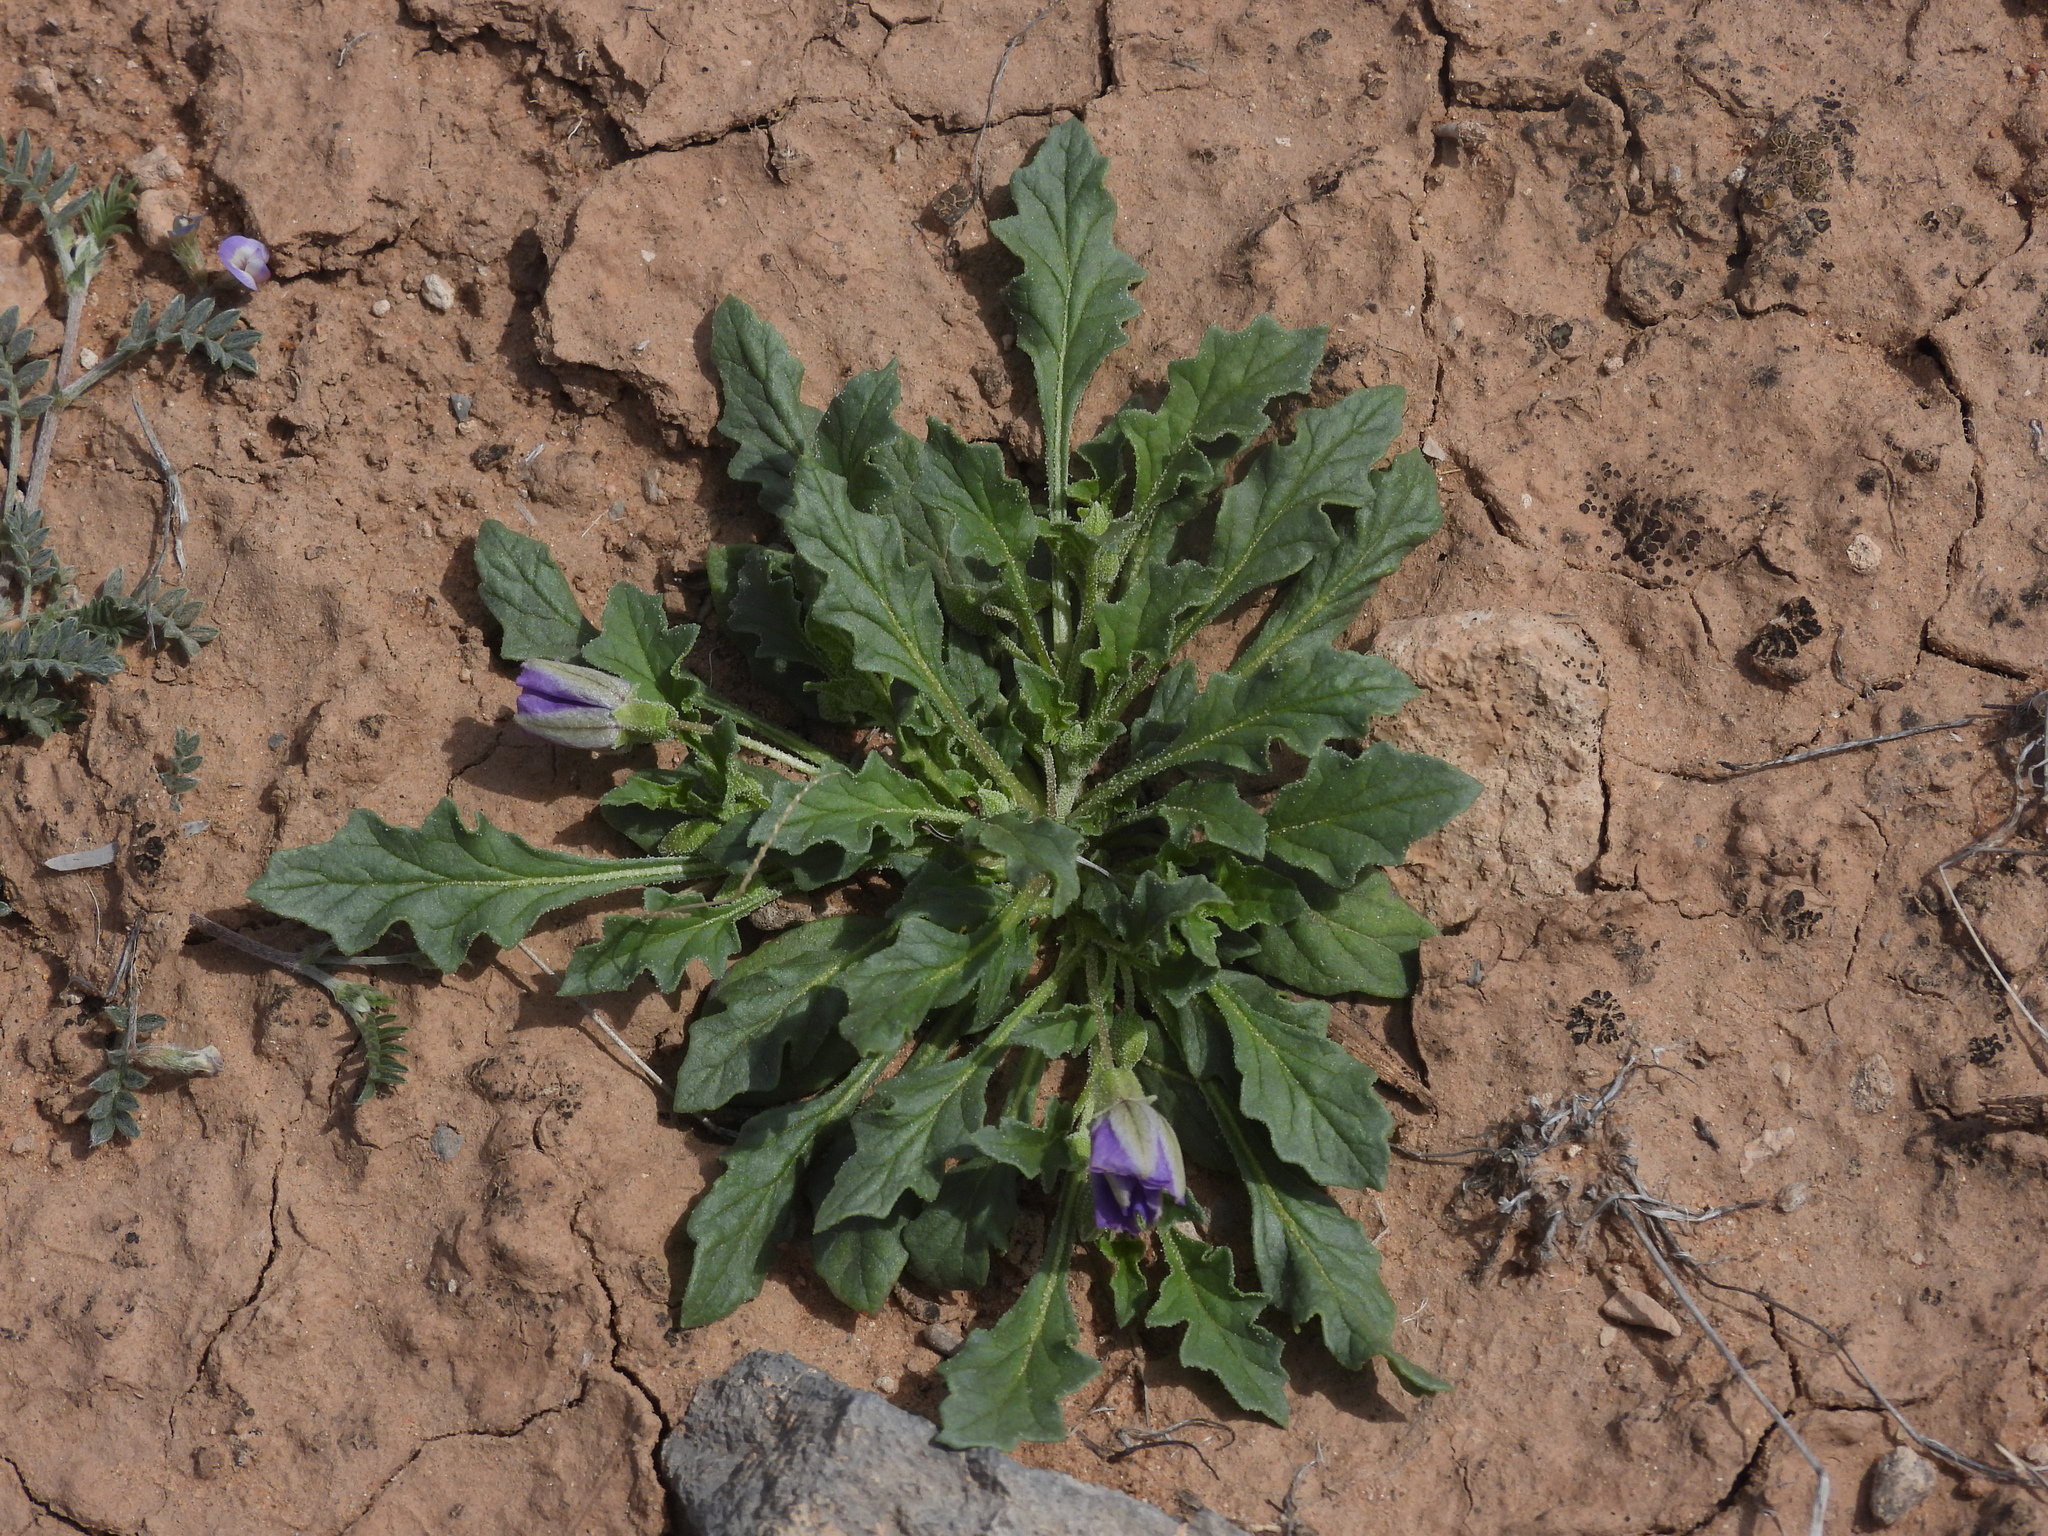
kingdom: Plantae
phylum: Tracheophyta
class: Magnoliopsida
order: Solanales
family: Solanaceae
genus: Quincula
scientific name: Quincula lobata
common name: Purple-ground-cherry
